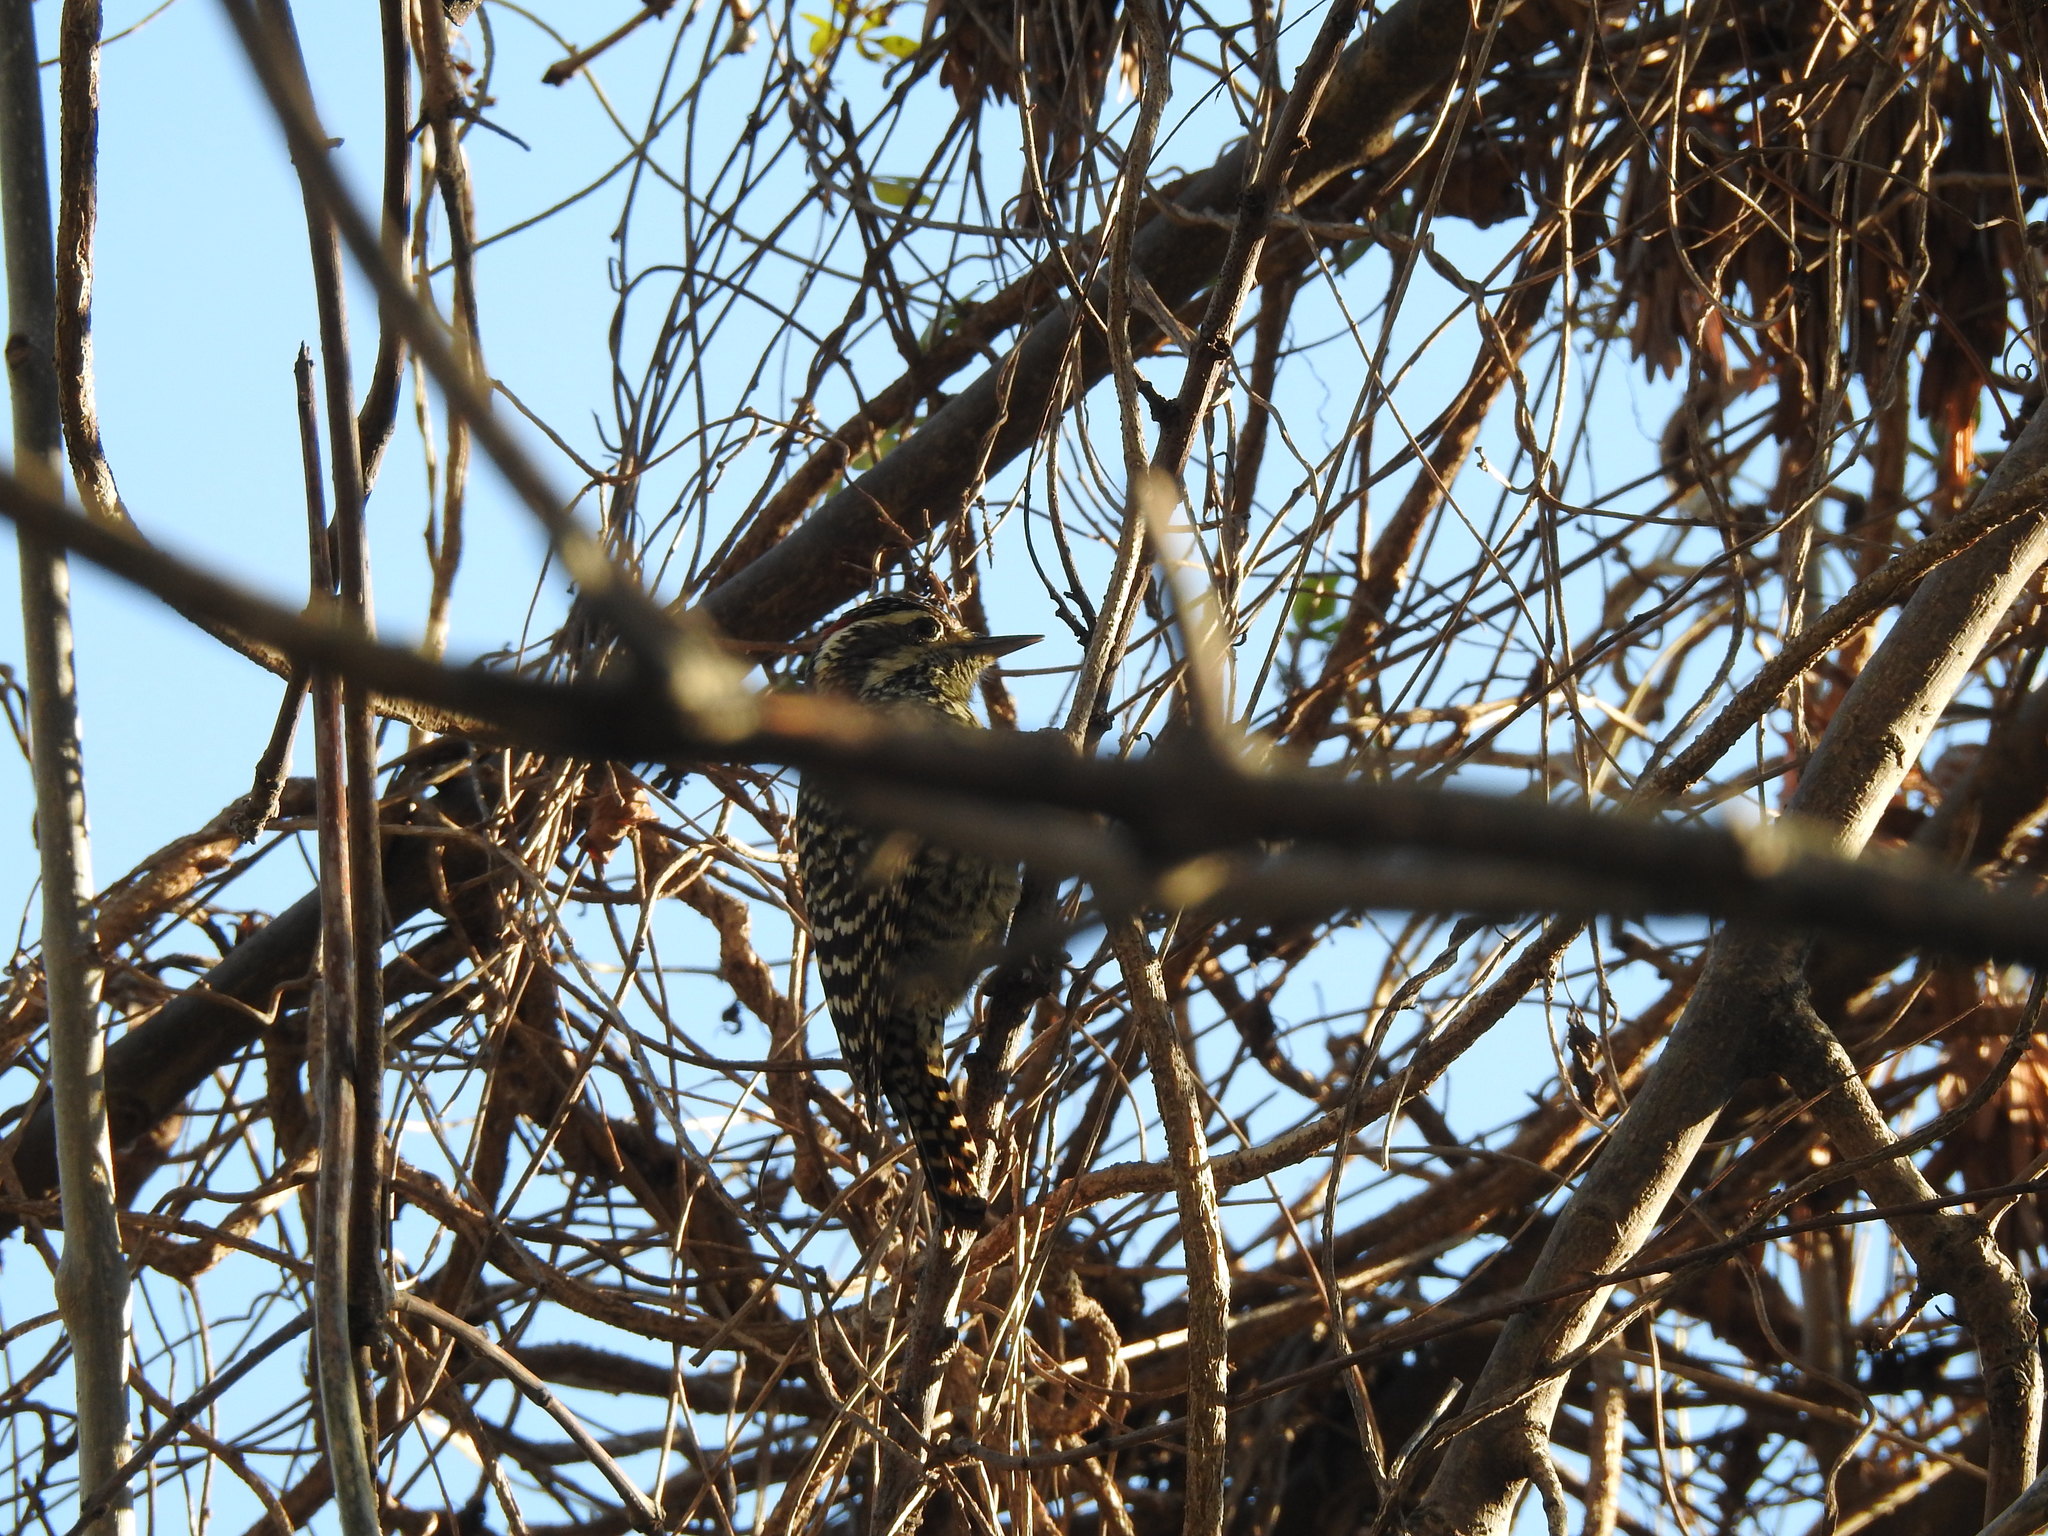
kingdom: Animalia
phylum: Chordata
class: Aves
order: Piciformes
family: Picidae
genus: Veniliornis
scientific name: Veniliornis mixtus
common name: Checkered woodpecker
